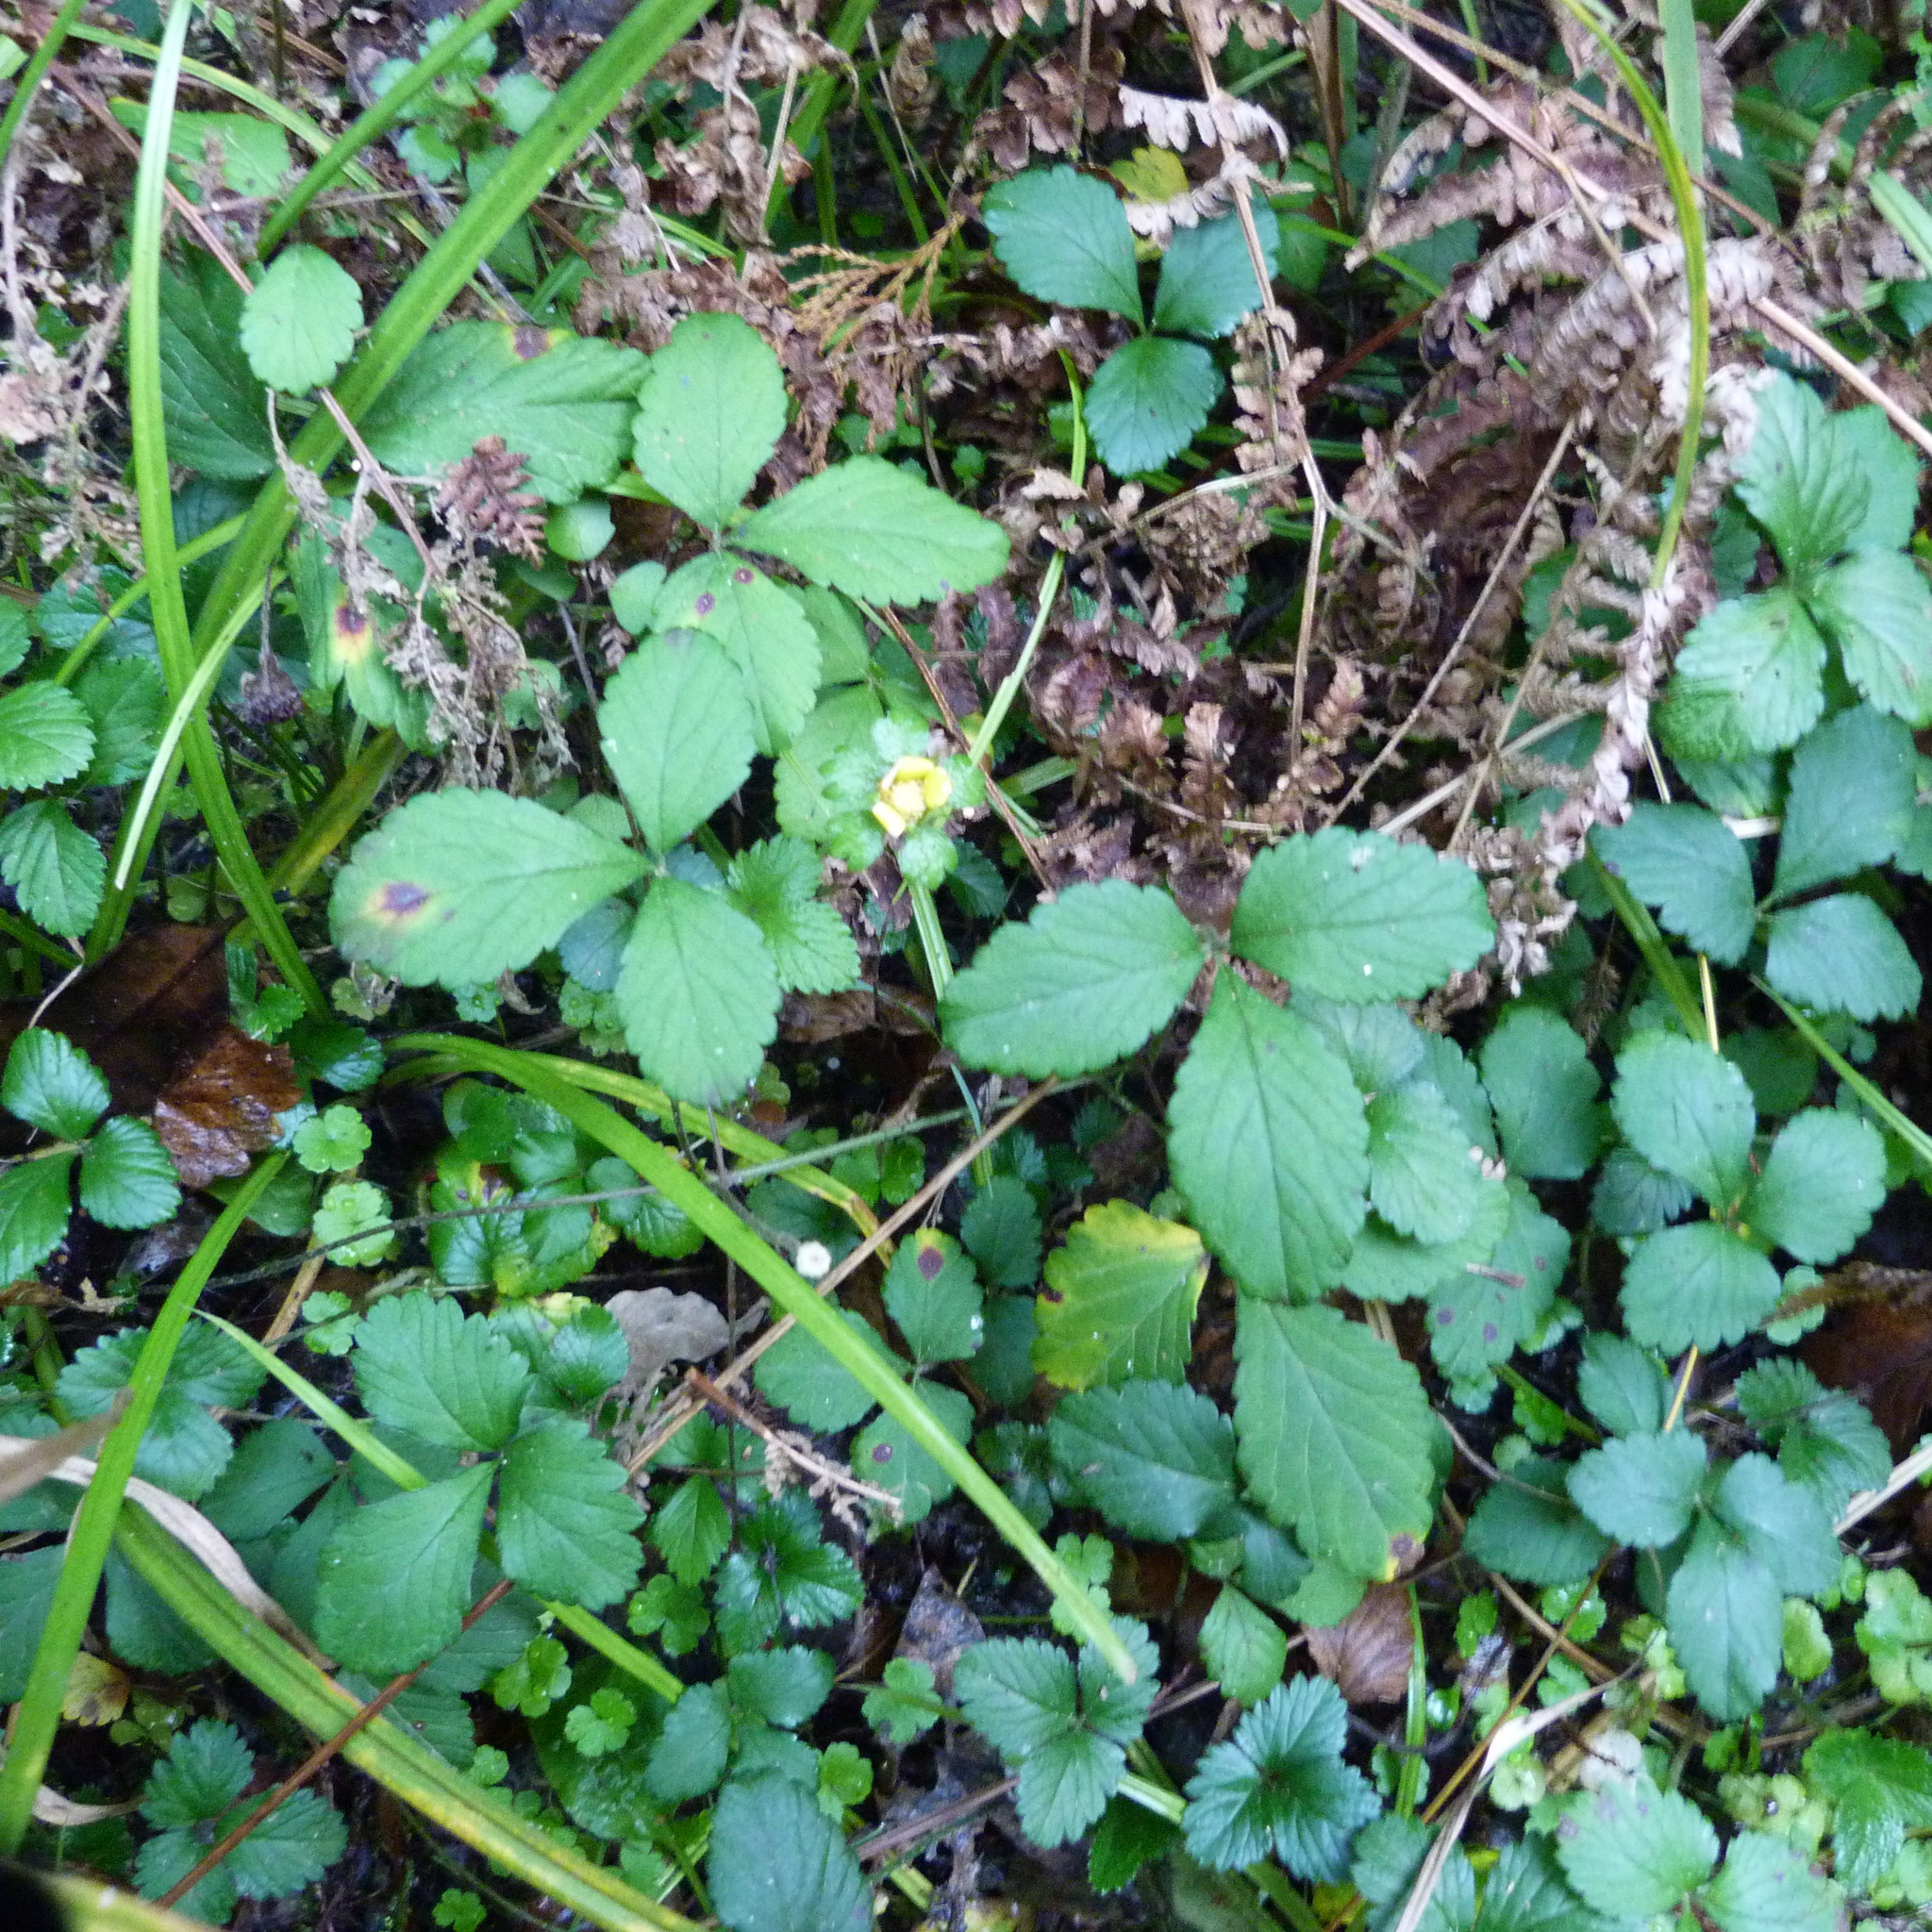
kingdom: Plantae
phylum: Tracheophyta
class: Magnoliopsida
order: Rosales
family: Rosaceae
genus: Fragaria
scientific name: Fragaria vesca
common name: Wild strawberry
